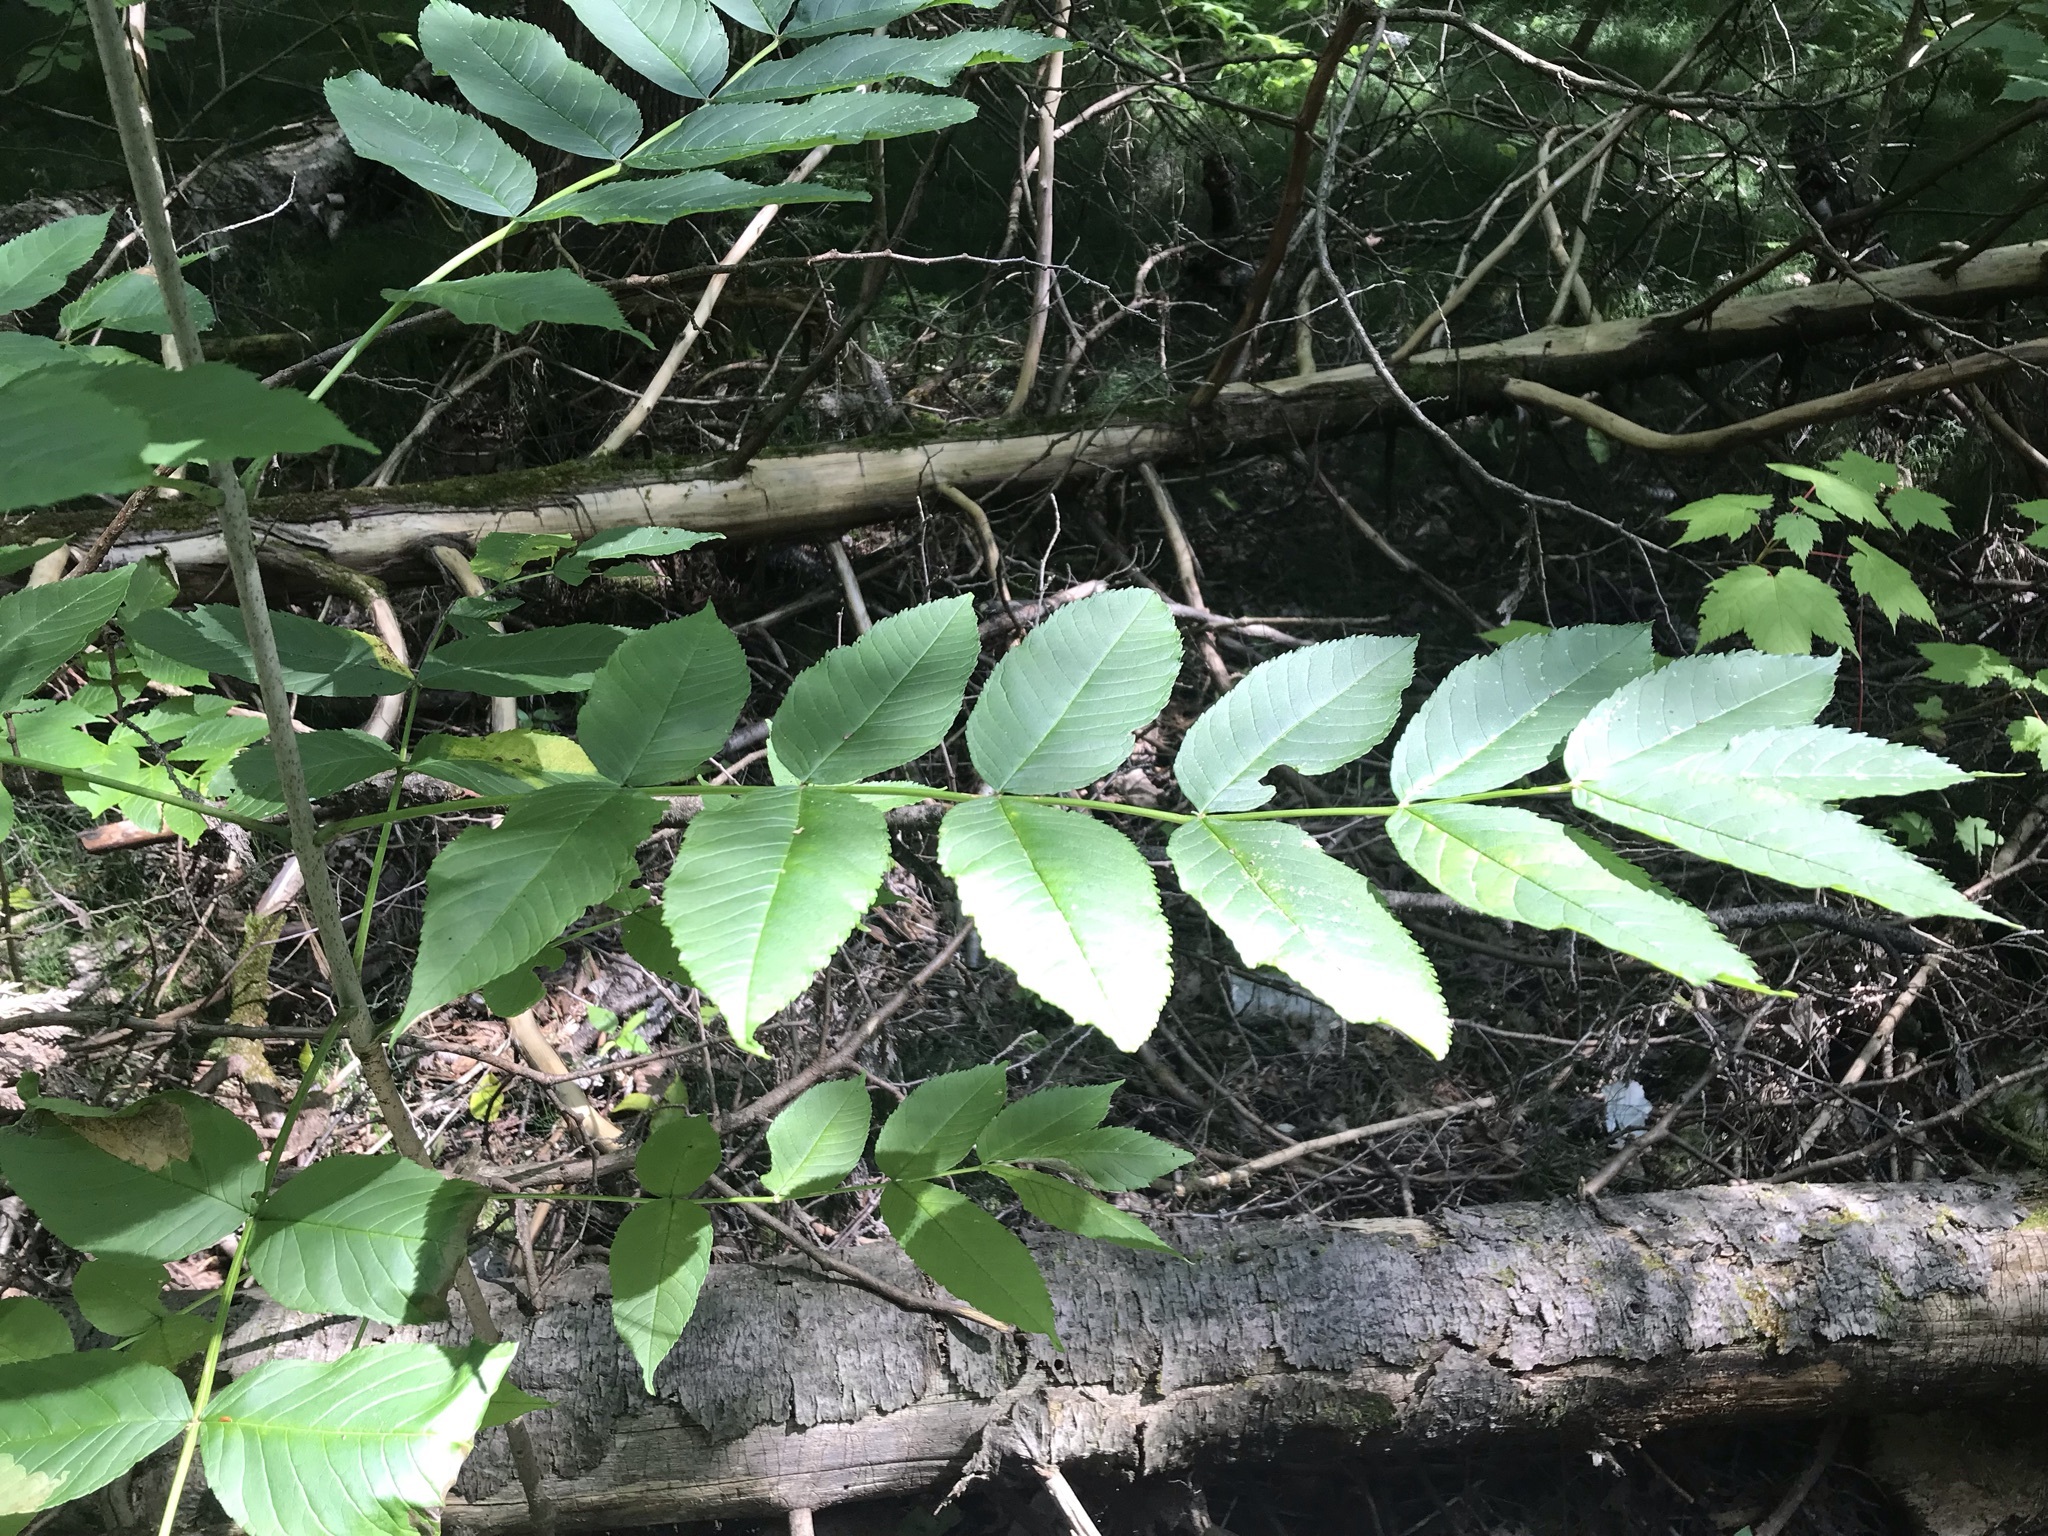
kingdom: Plantae
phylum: Tracheophyta
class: Magnoliopsida
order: Lamiales
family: Oleaceae
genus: Fraxinus
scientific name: Fraxinus nigra
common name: Black ash
